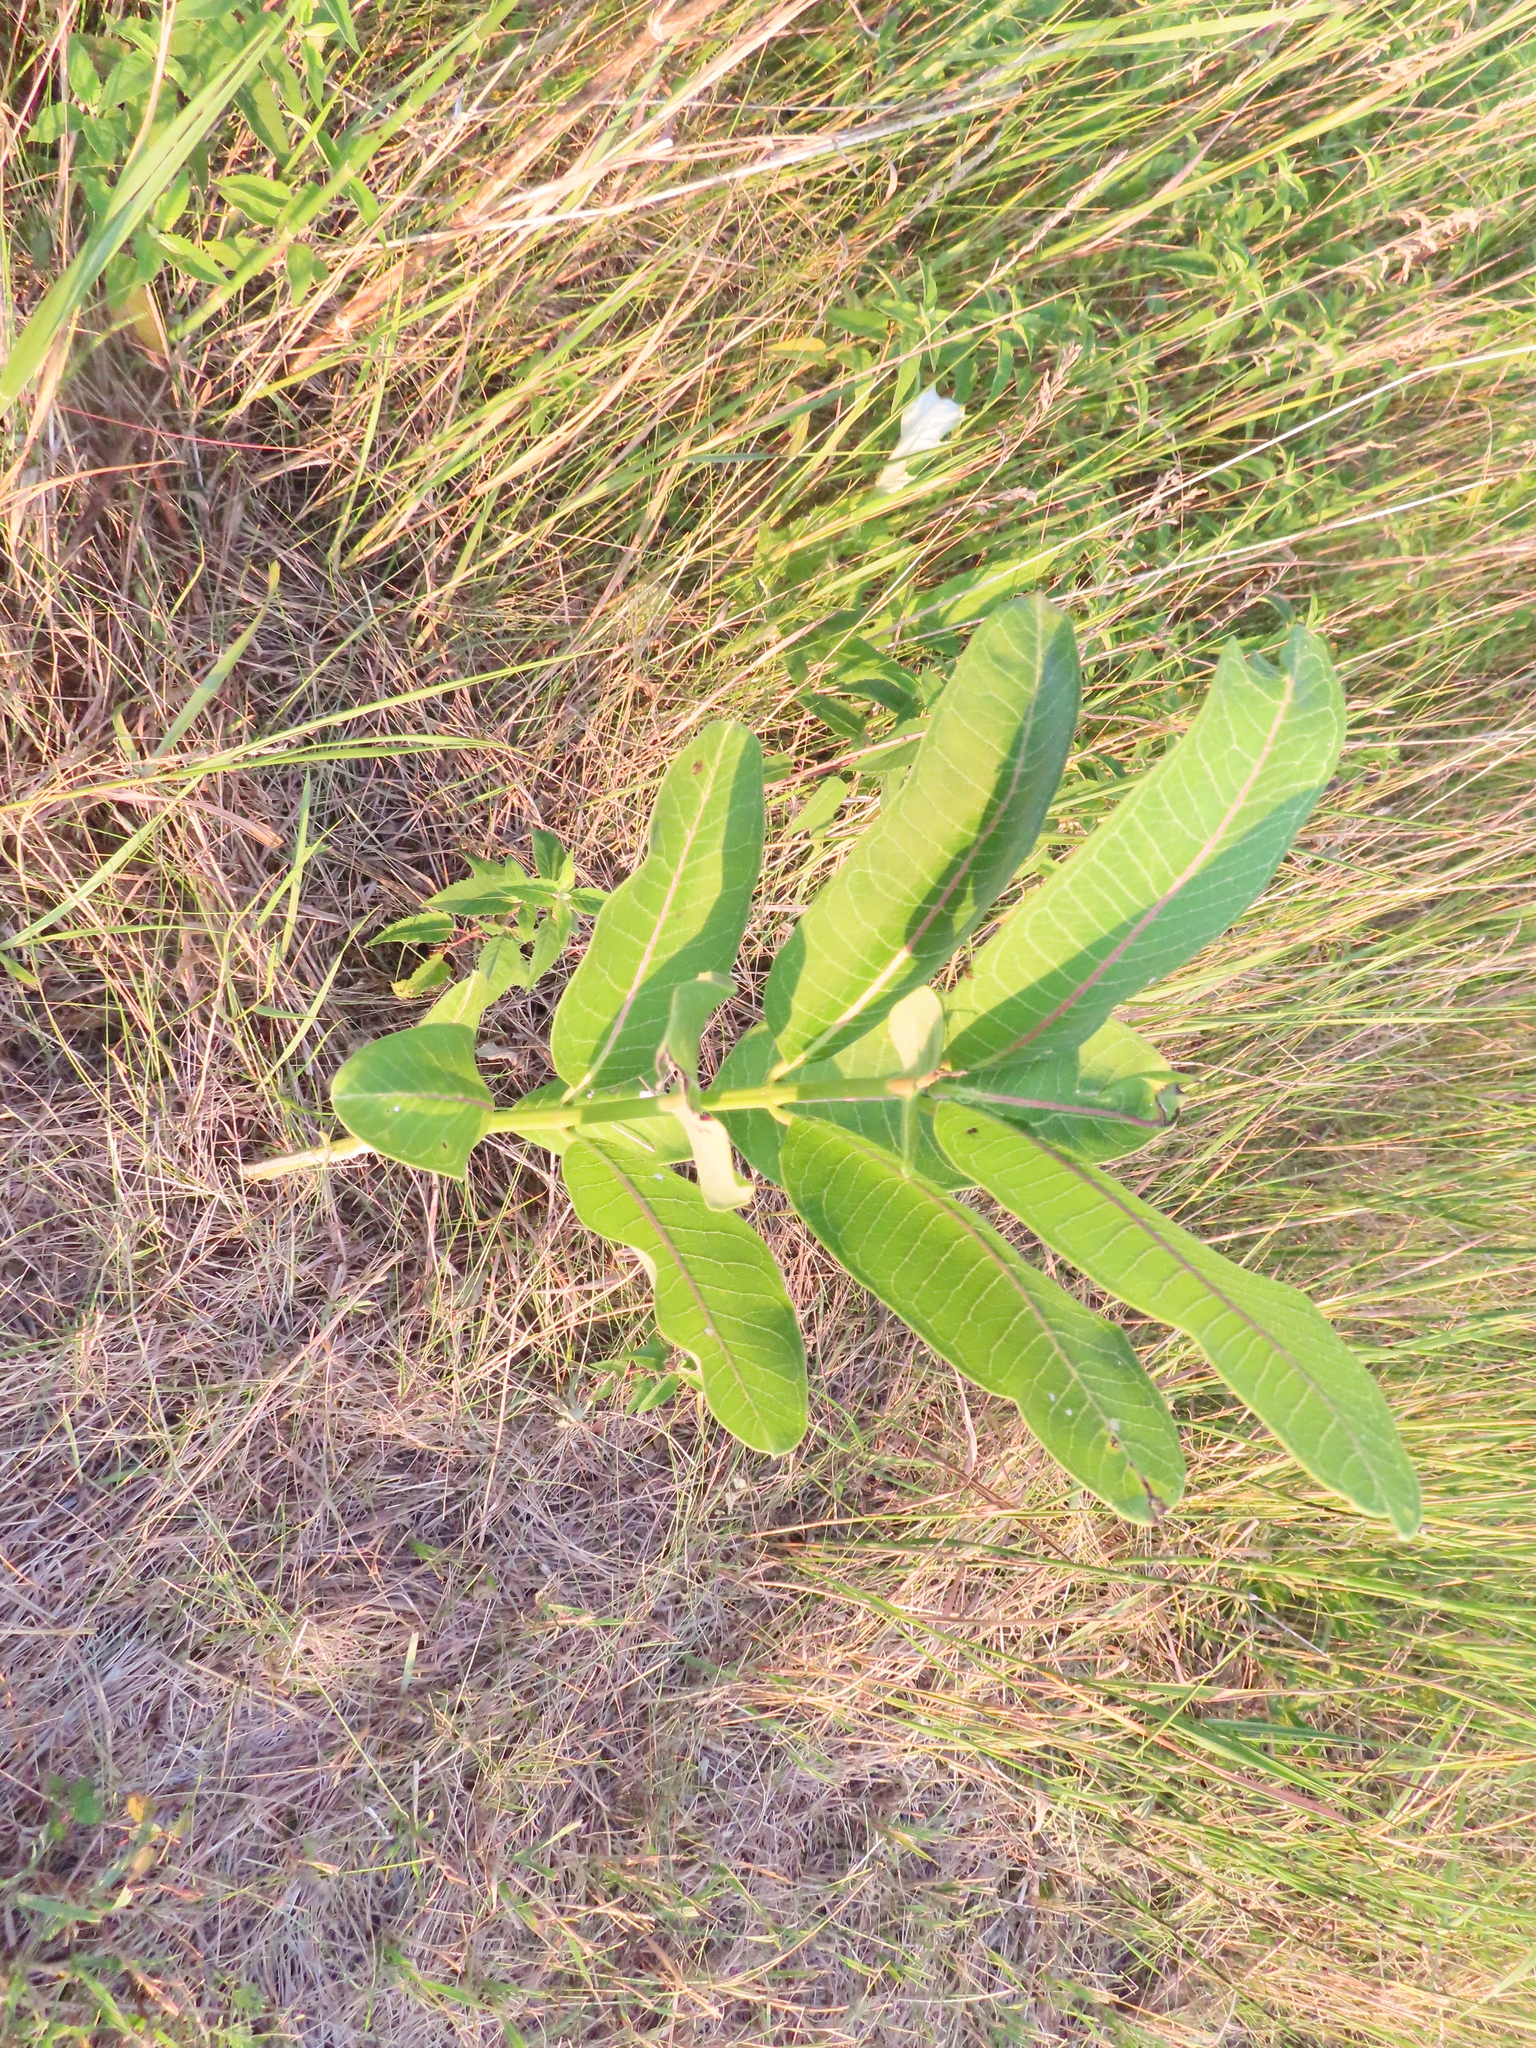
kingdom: Plantae
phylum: Tracheophyta
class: Magnoliopsida
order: Gentianales
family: Apocynaceae
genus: Asclepias
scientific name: Asclepias syriaca
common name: Common milkweed
